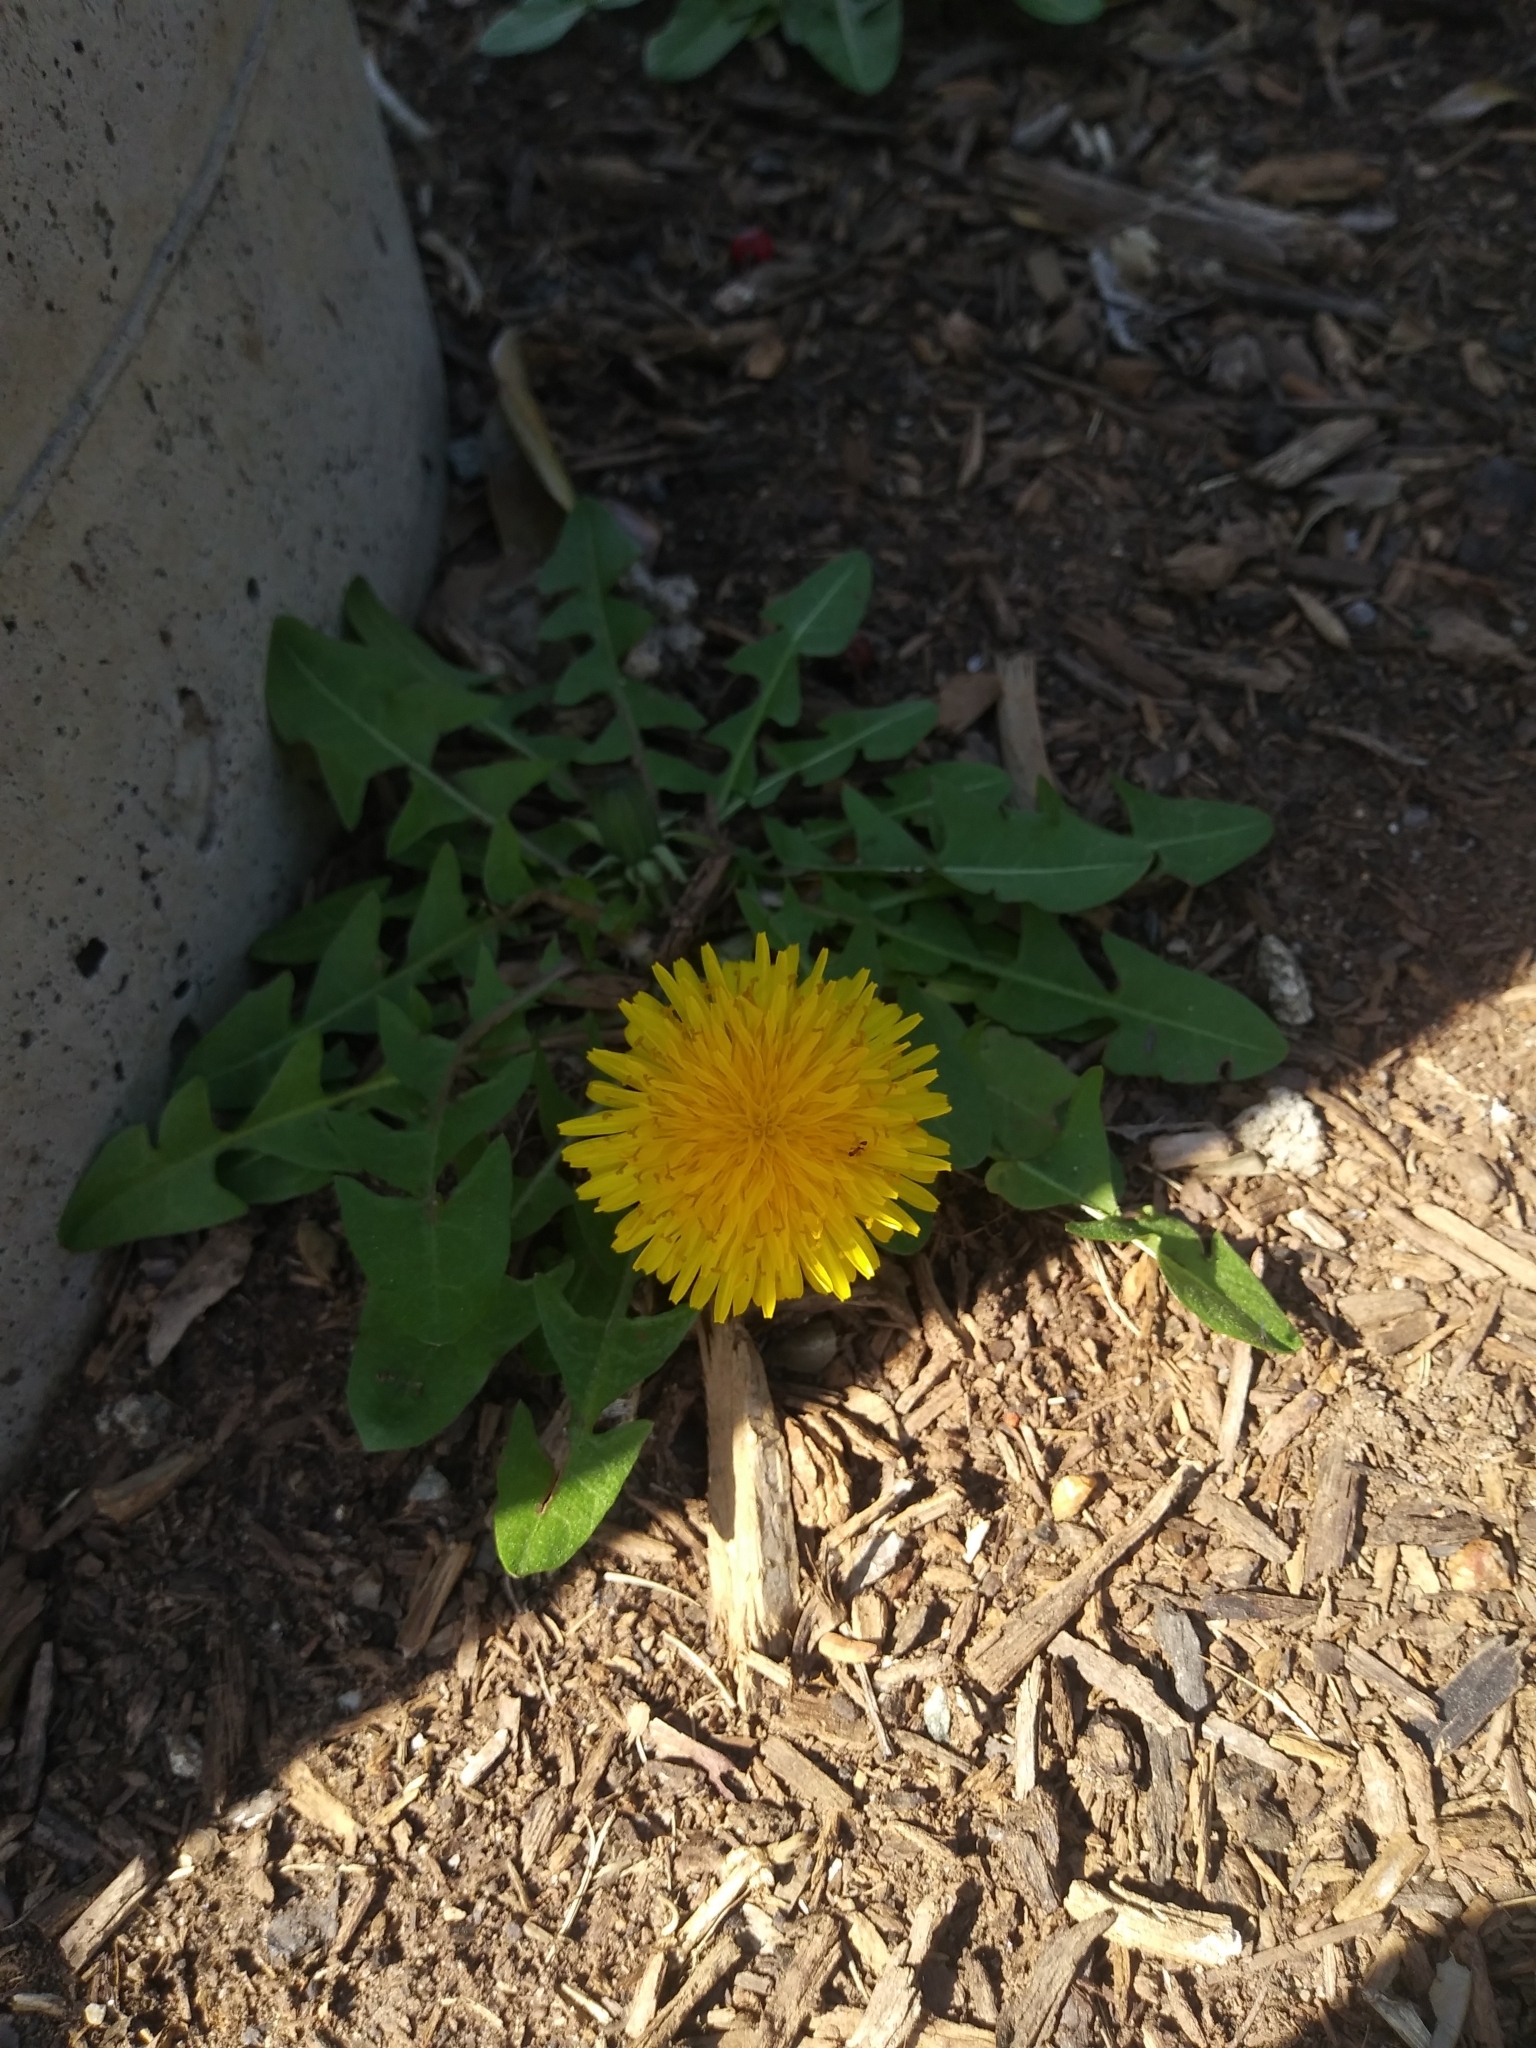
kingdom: Plantae
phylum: Tracheophyta
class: Magnoliopsida
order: Asterales
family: Asteraceae
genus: Taraxacum
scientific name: Taraxacum officinale
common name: Common dandelion
